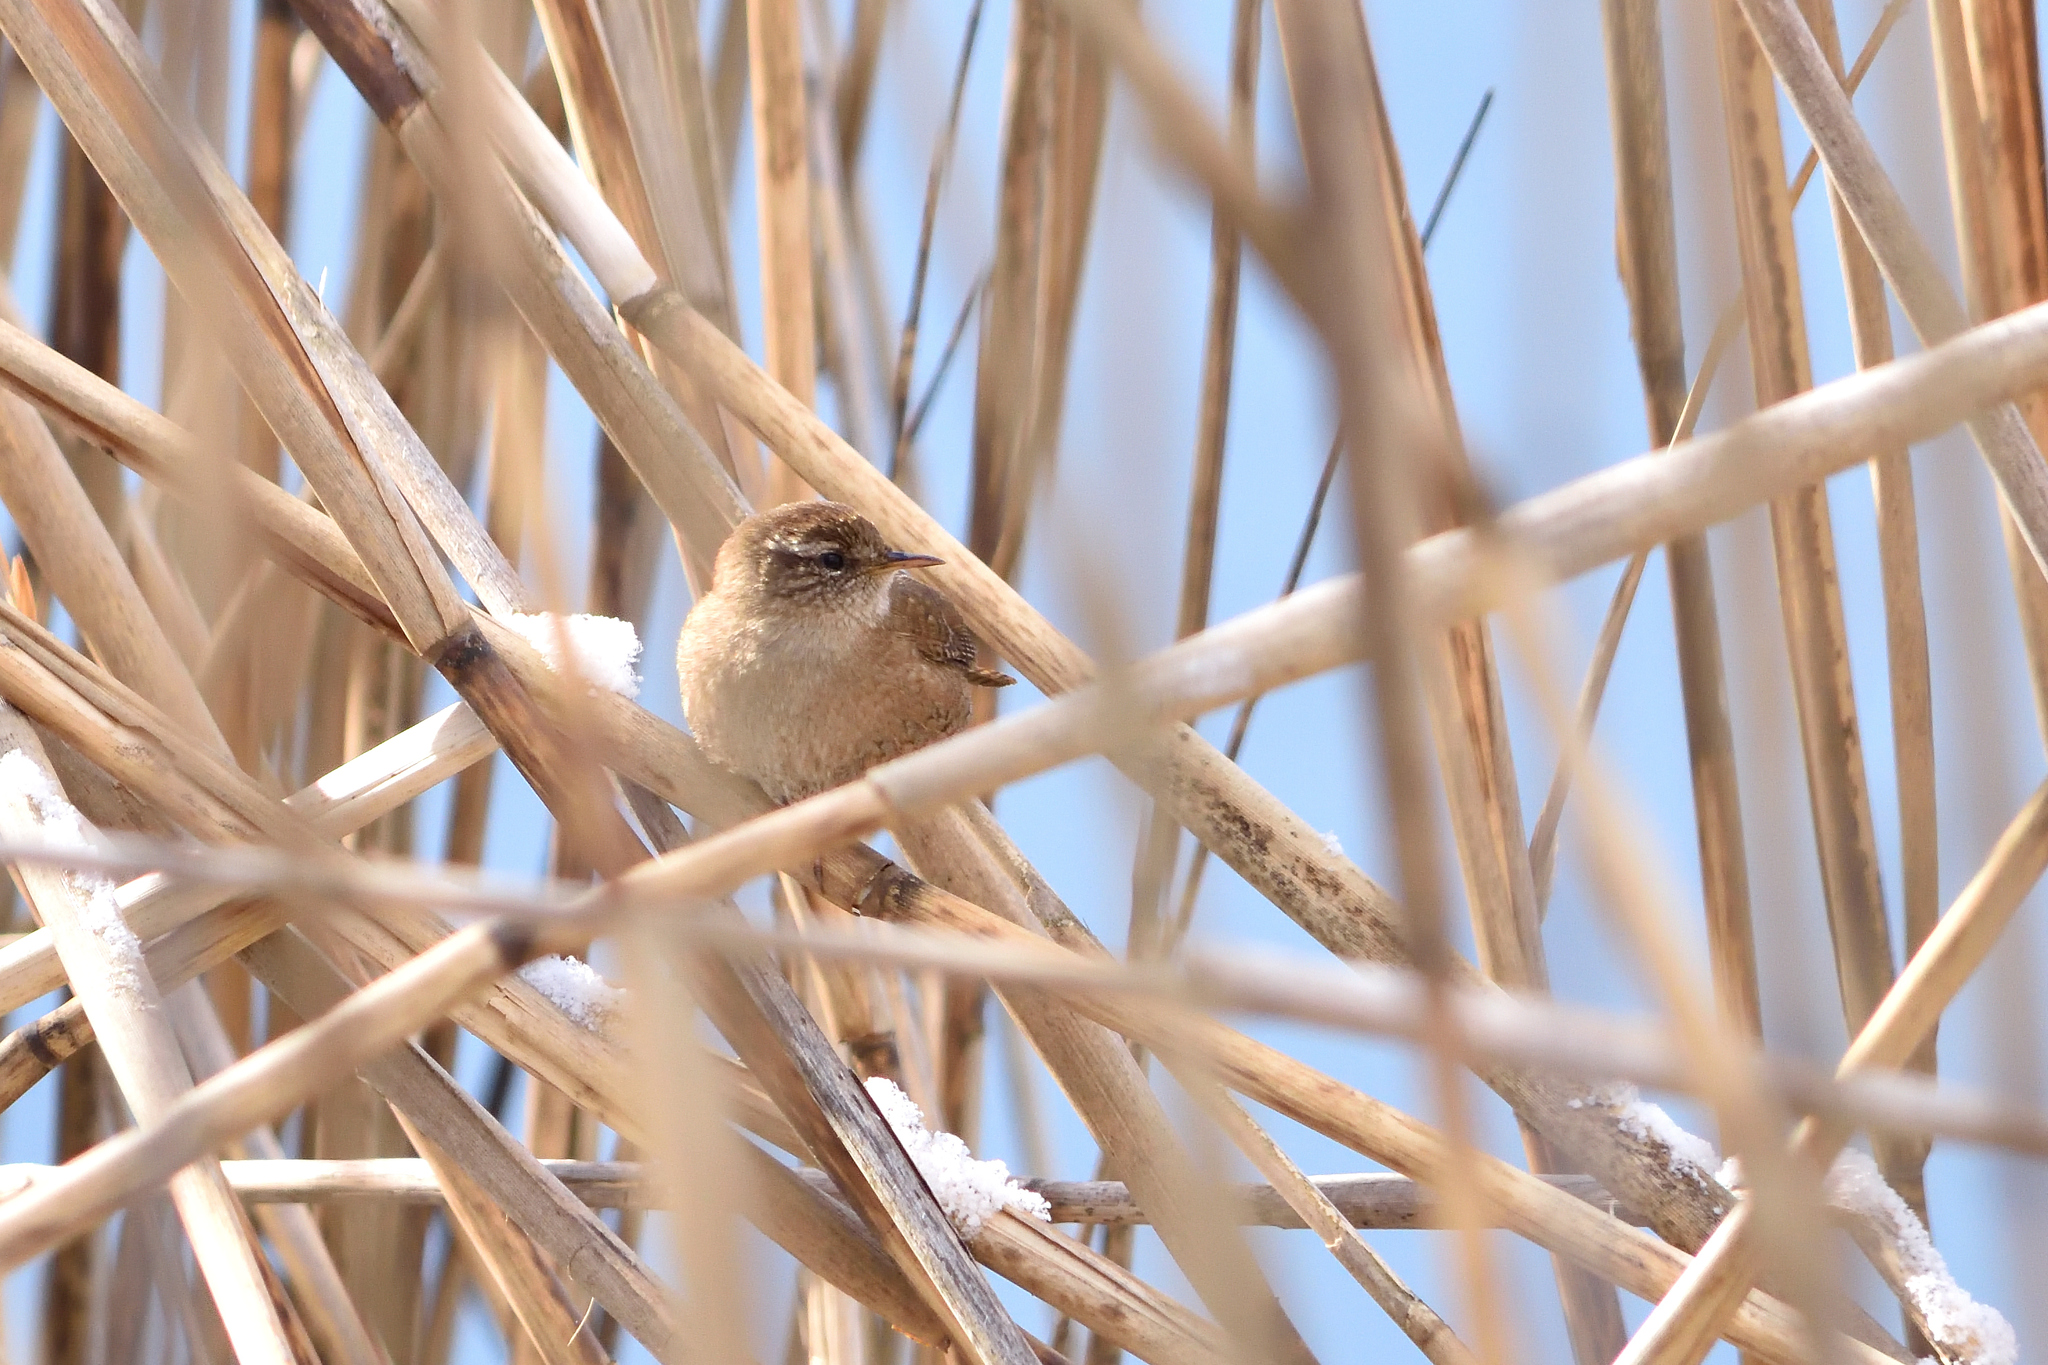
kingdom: Animalia
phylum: Chordata
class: Aves
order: Passeriformes
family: Troglodytidae
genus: Troglodytes
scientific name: Troglodytes troglodytes
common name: Eurasian wren
